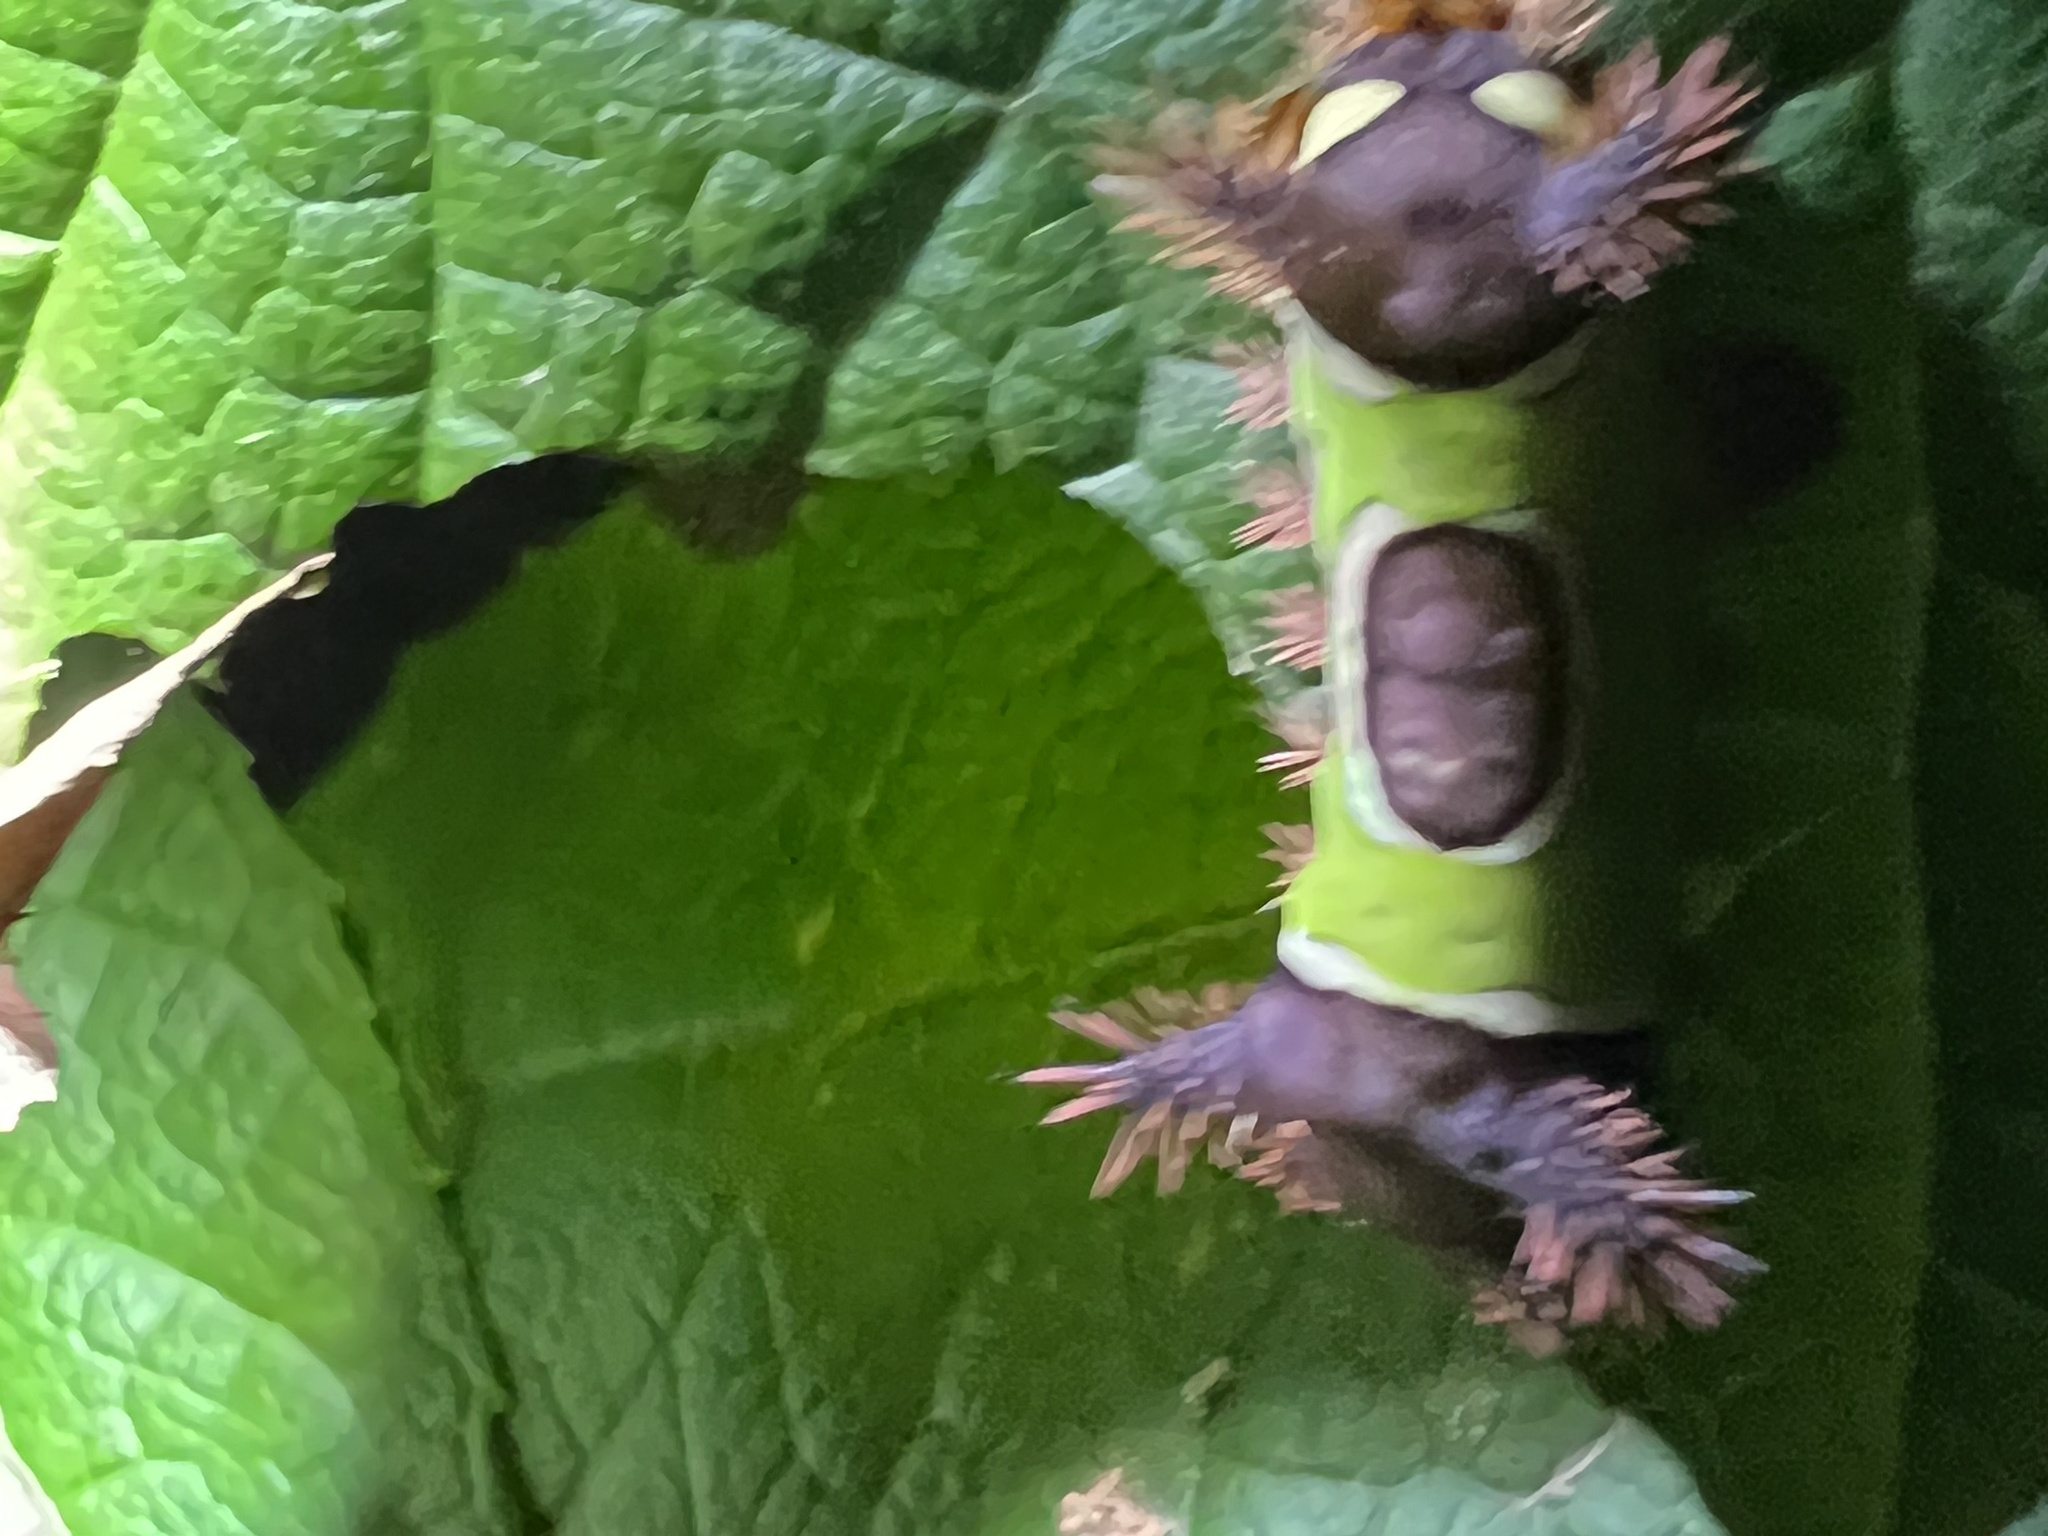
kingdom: Animalia
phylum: Arthropoda
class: Insecta
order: Lepidoptera
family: Limacodidae
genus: Acharia
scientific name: Acharia stimulea
